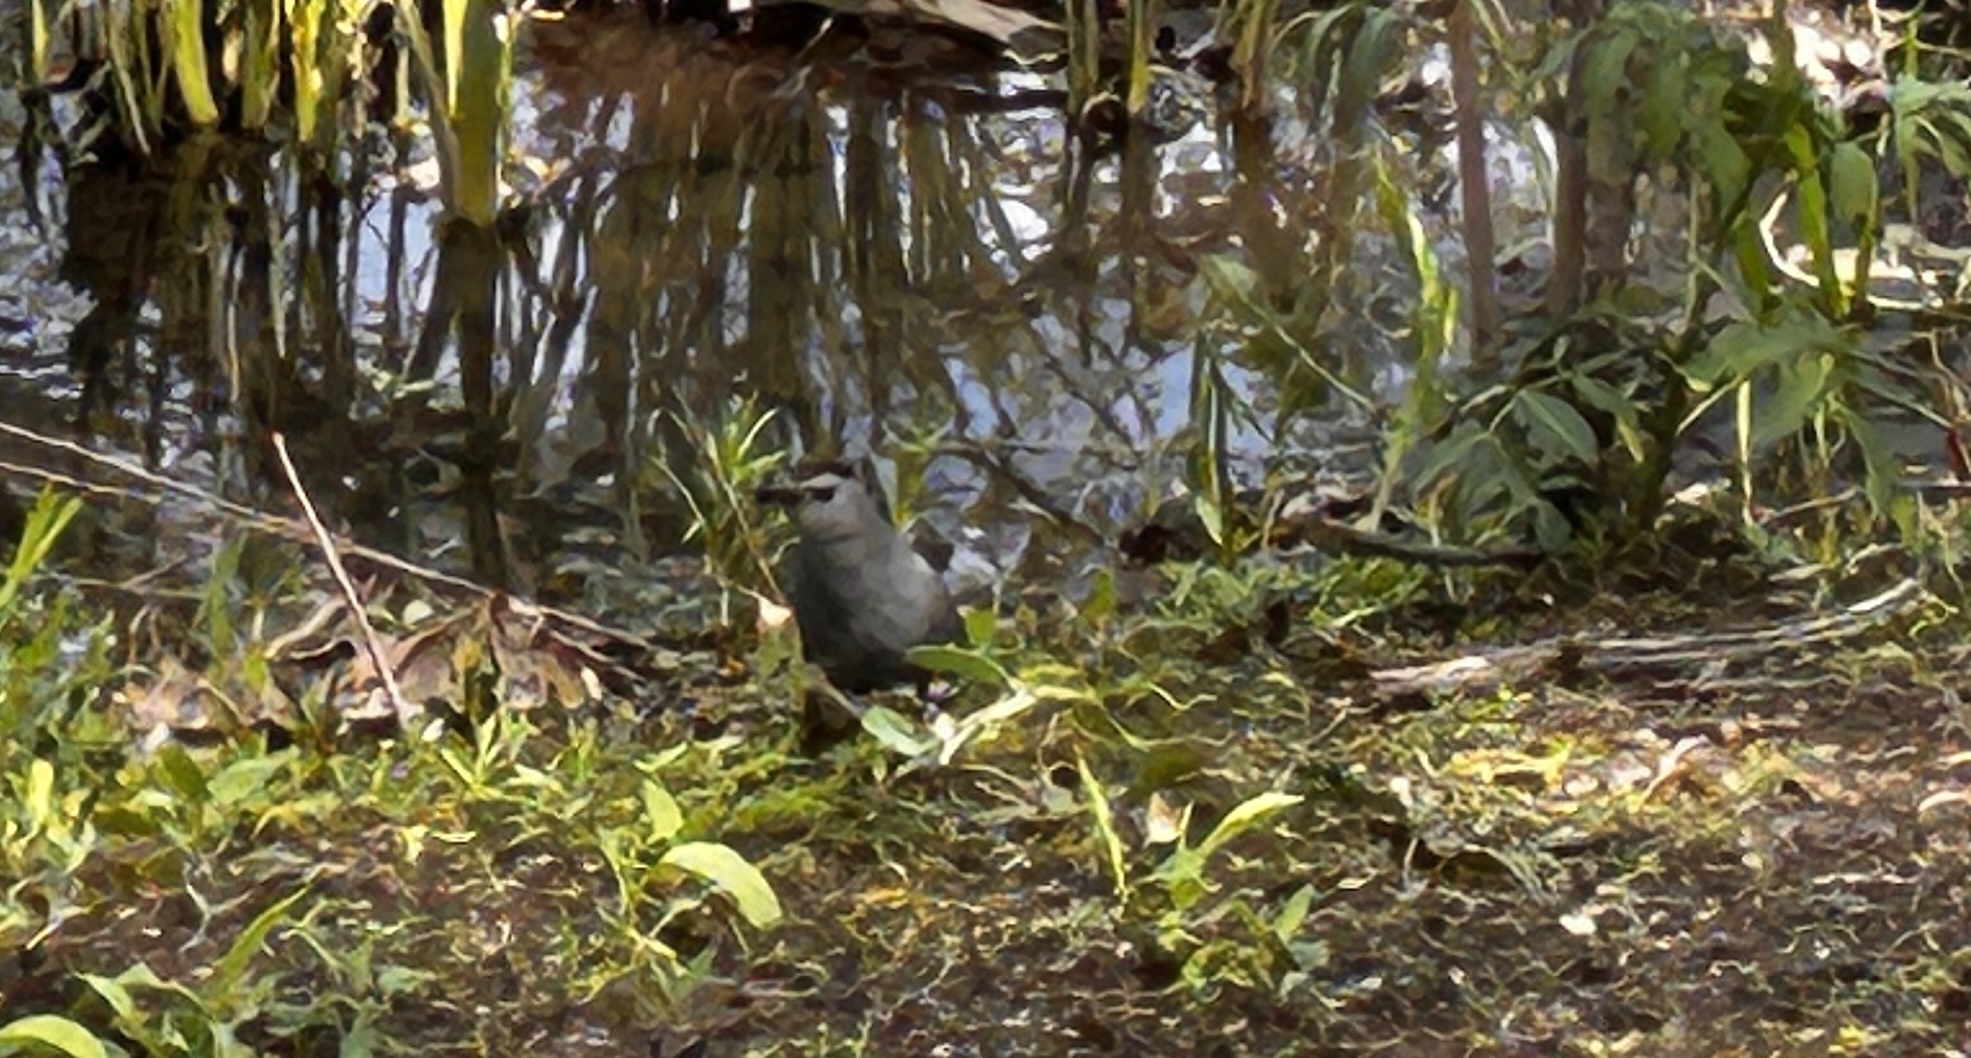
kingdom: Animalia
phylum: Chordata
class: Aves
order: Passeriformes
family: Mimidae
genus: Dumetella
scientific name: Dumetella carolinensis
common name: Gray catbird
